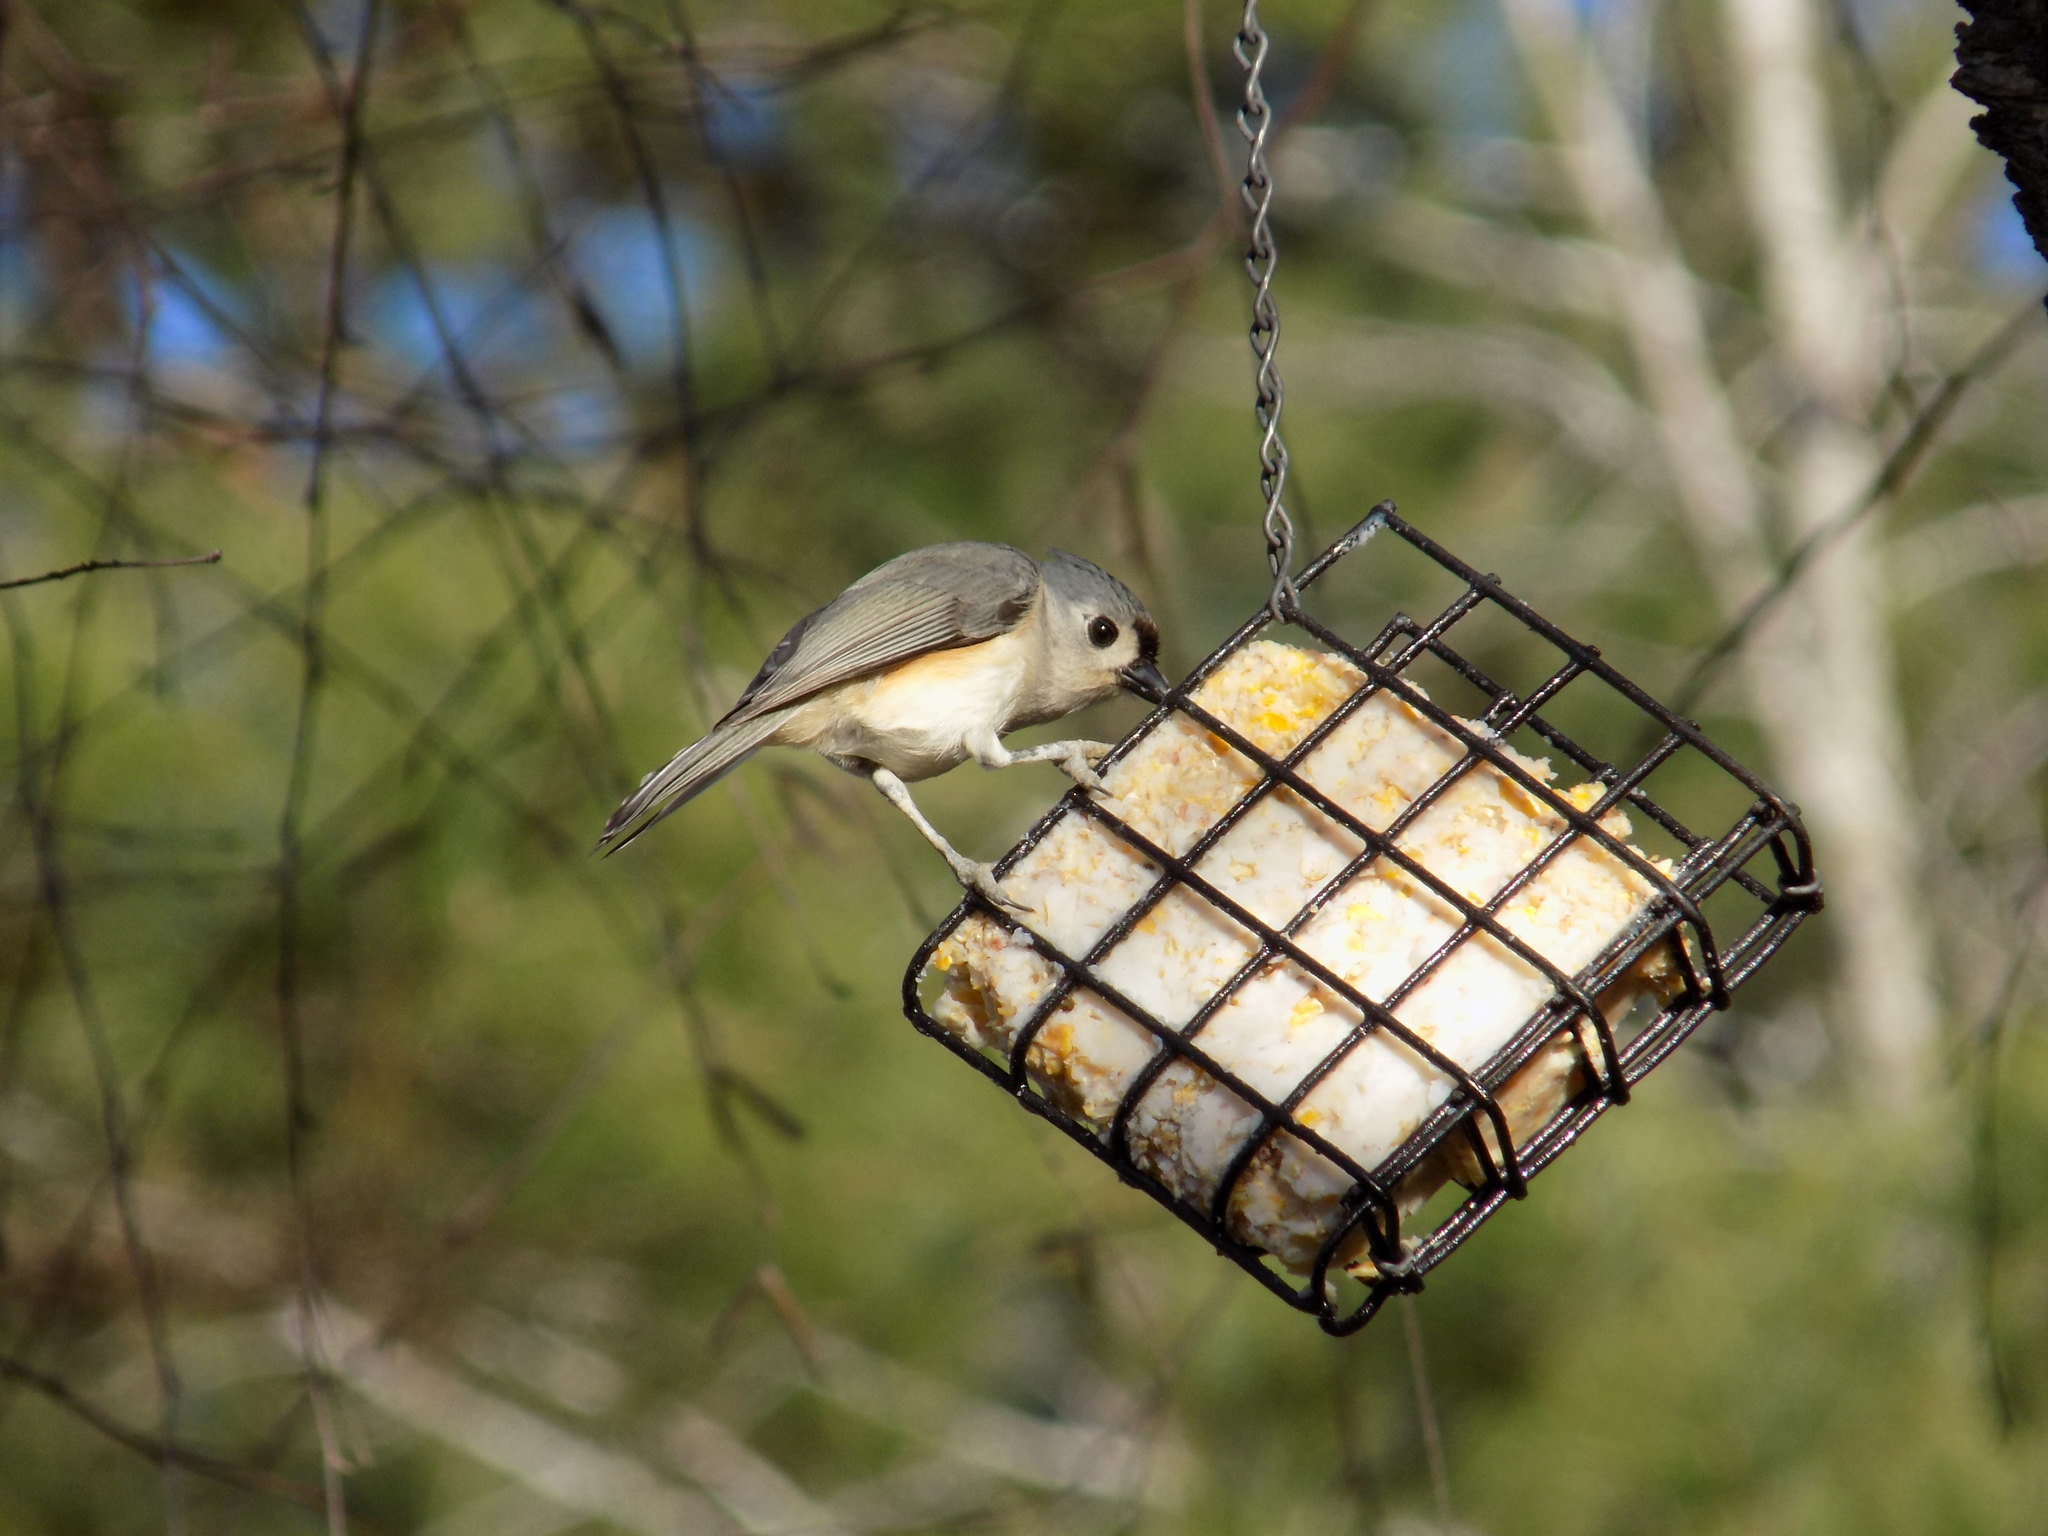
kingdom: Animalia
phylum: Chordata
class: Aves
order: Passeriformes
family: Paridae
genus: Baeolophus
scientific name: Baeolophus bicolor
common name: Tufted titmouse
